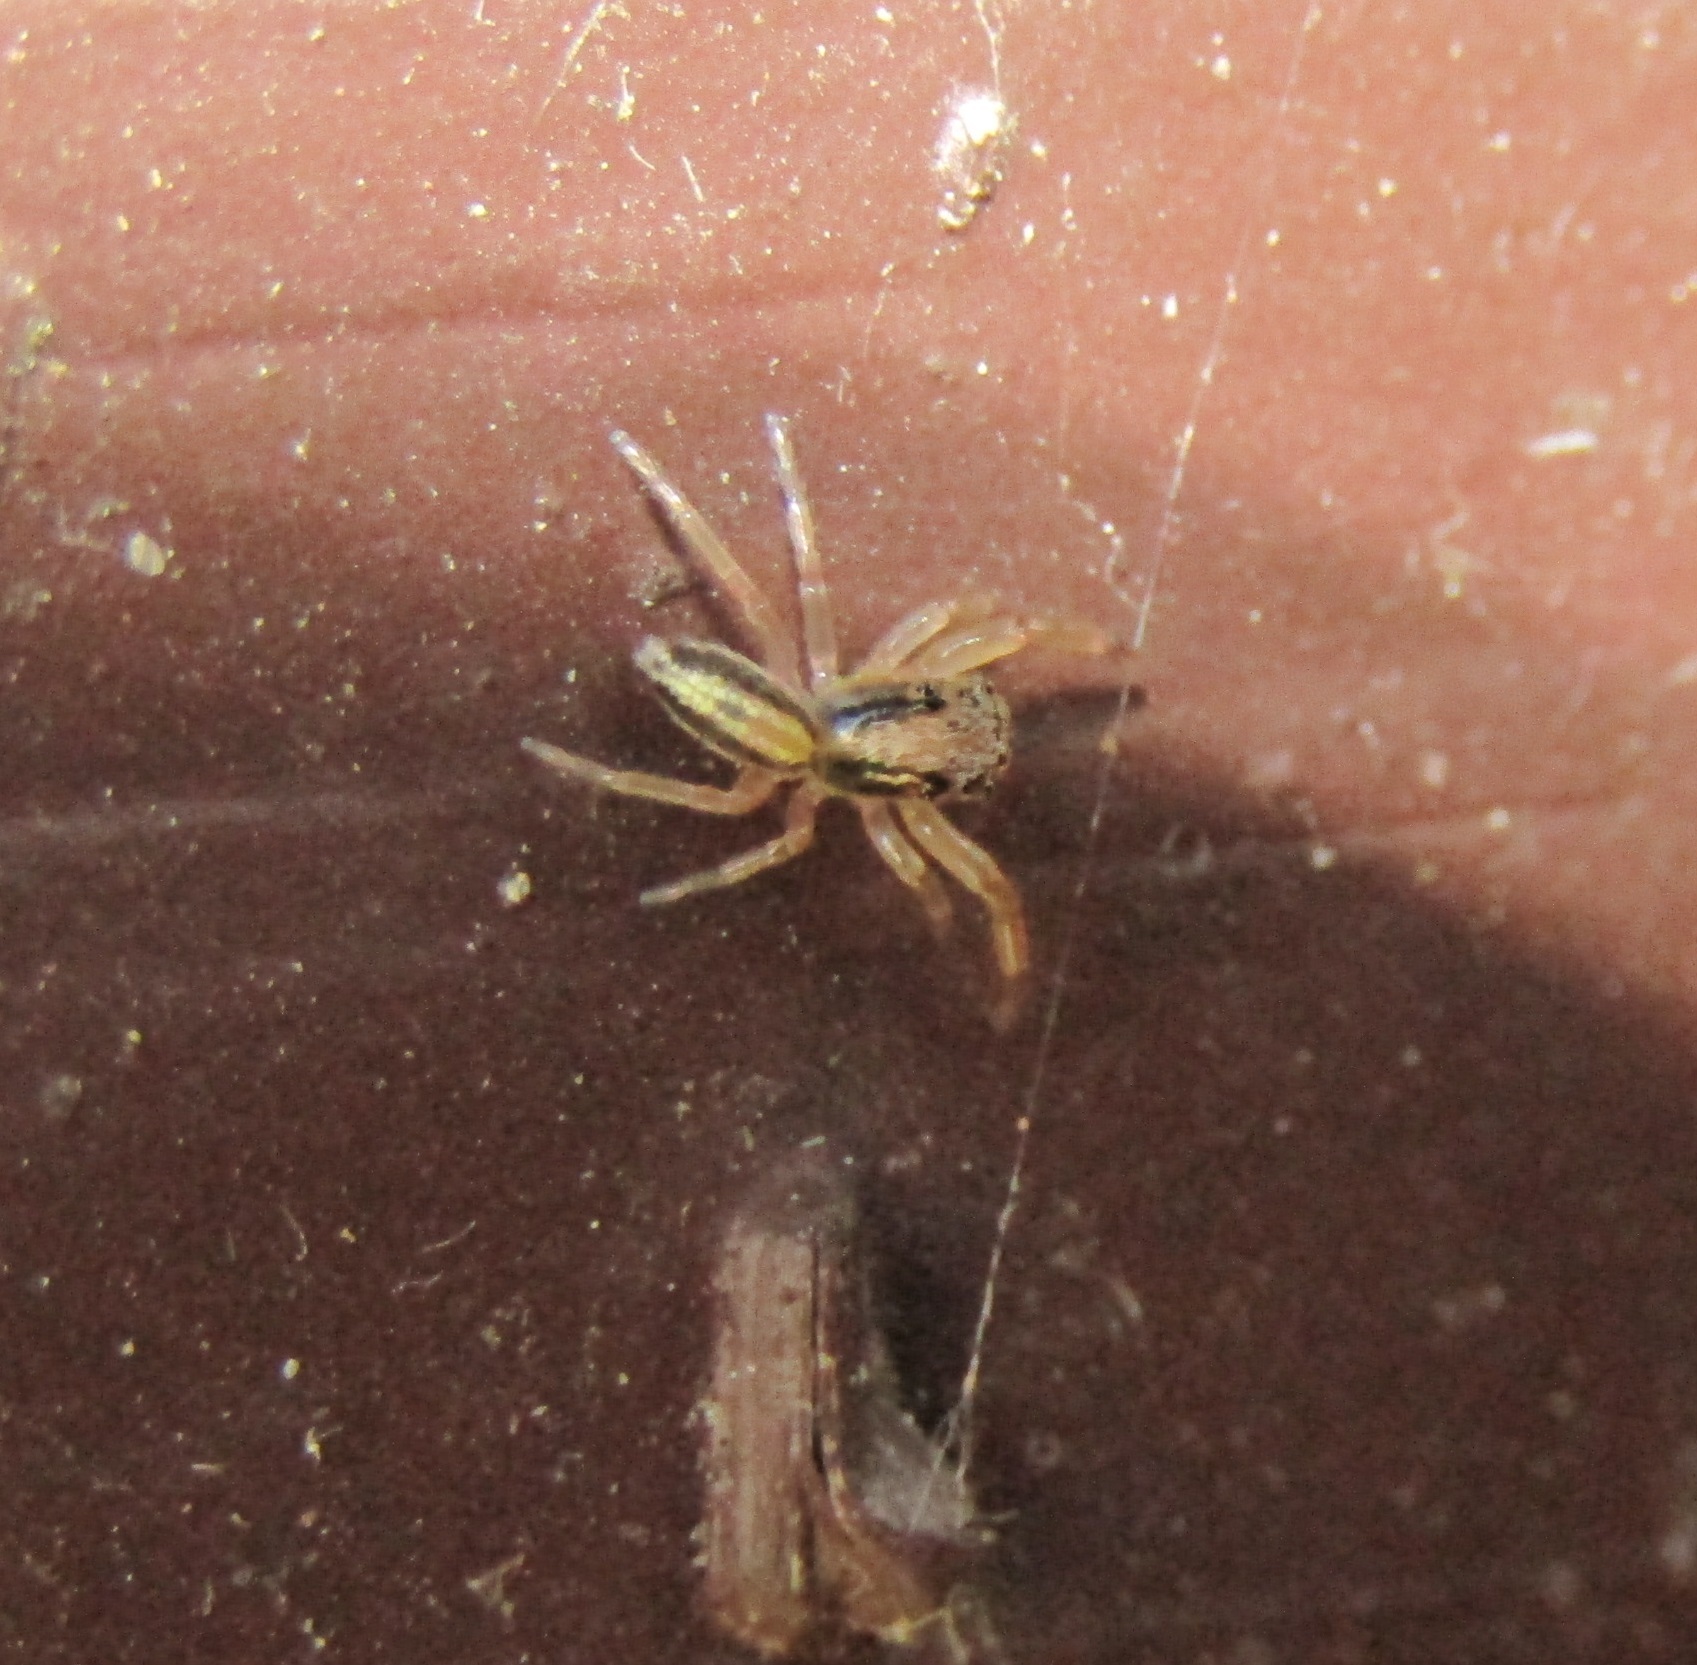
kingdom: Animalia
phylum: Arthropoda
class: Arachnida
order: Araneae
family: Salticidae
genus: Trite
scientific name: Trite planiceps
